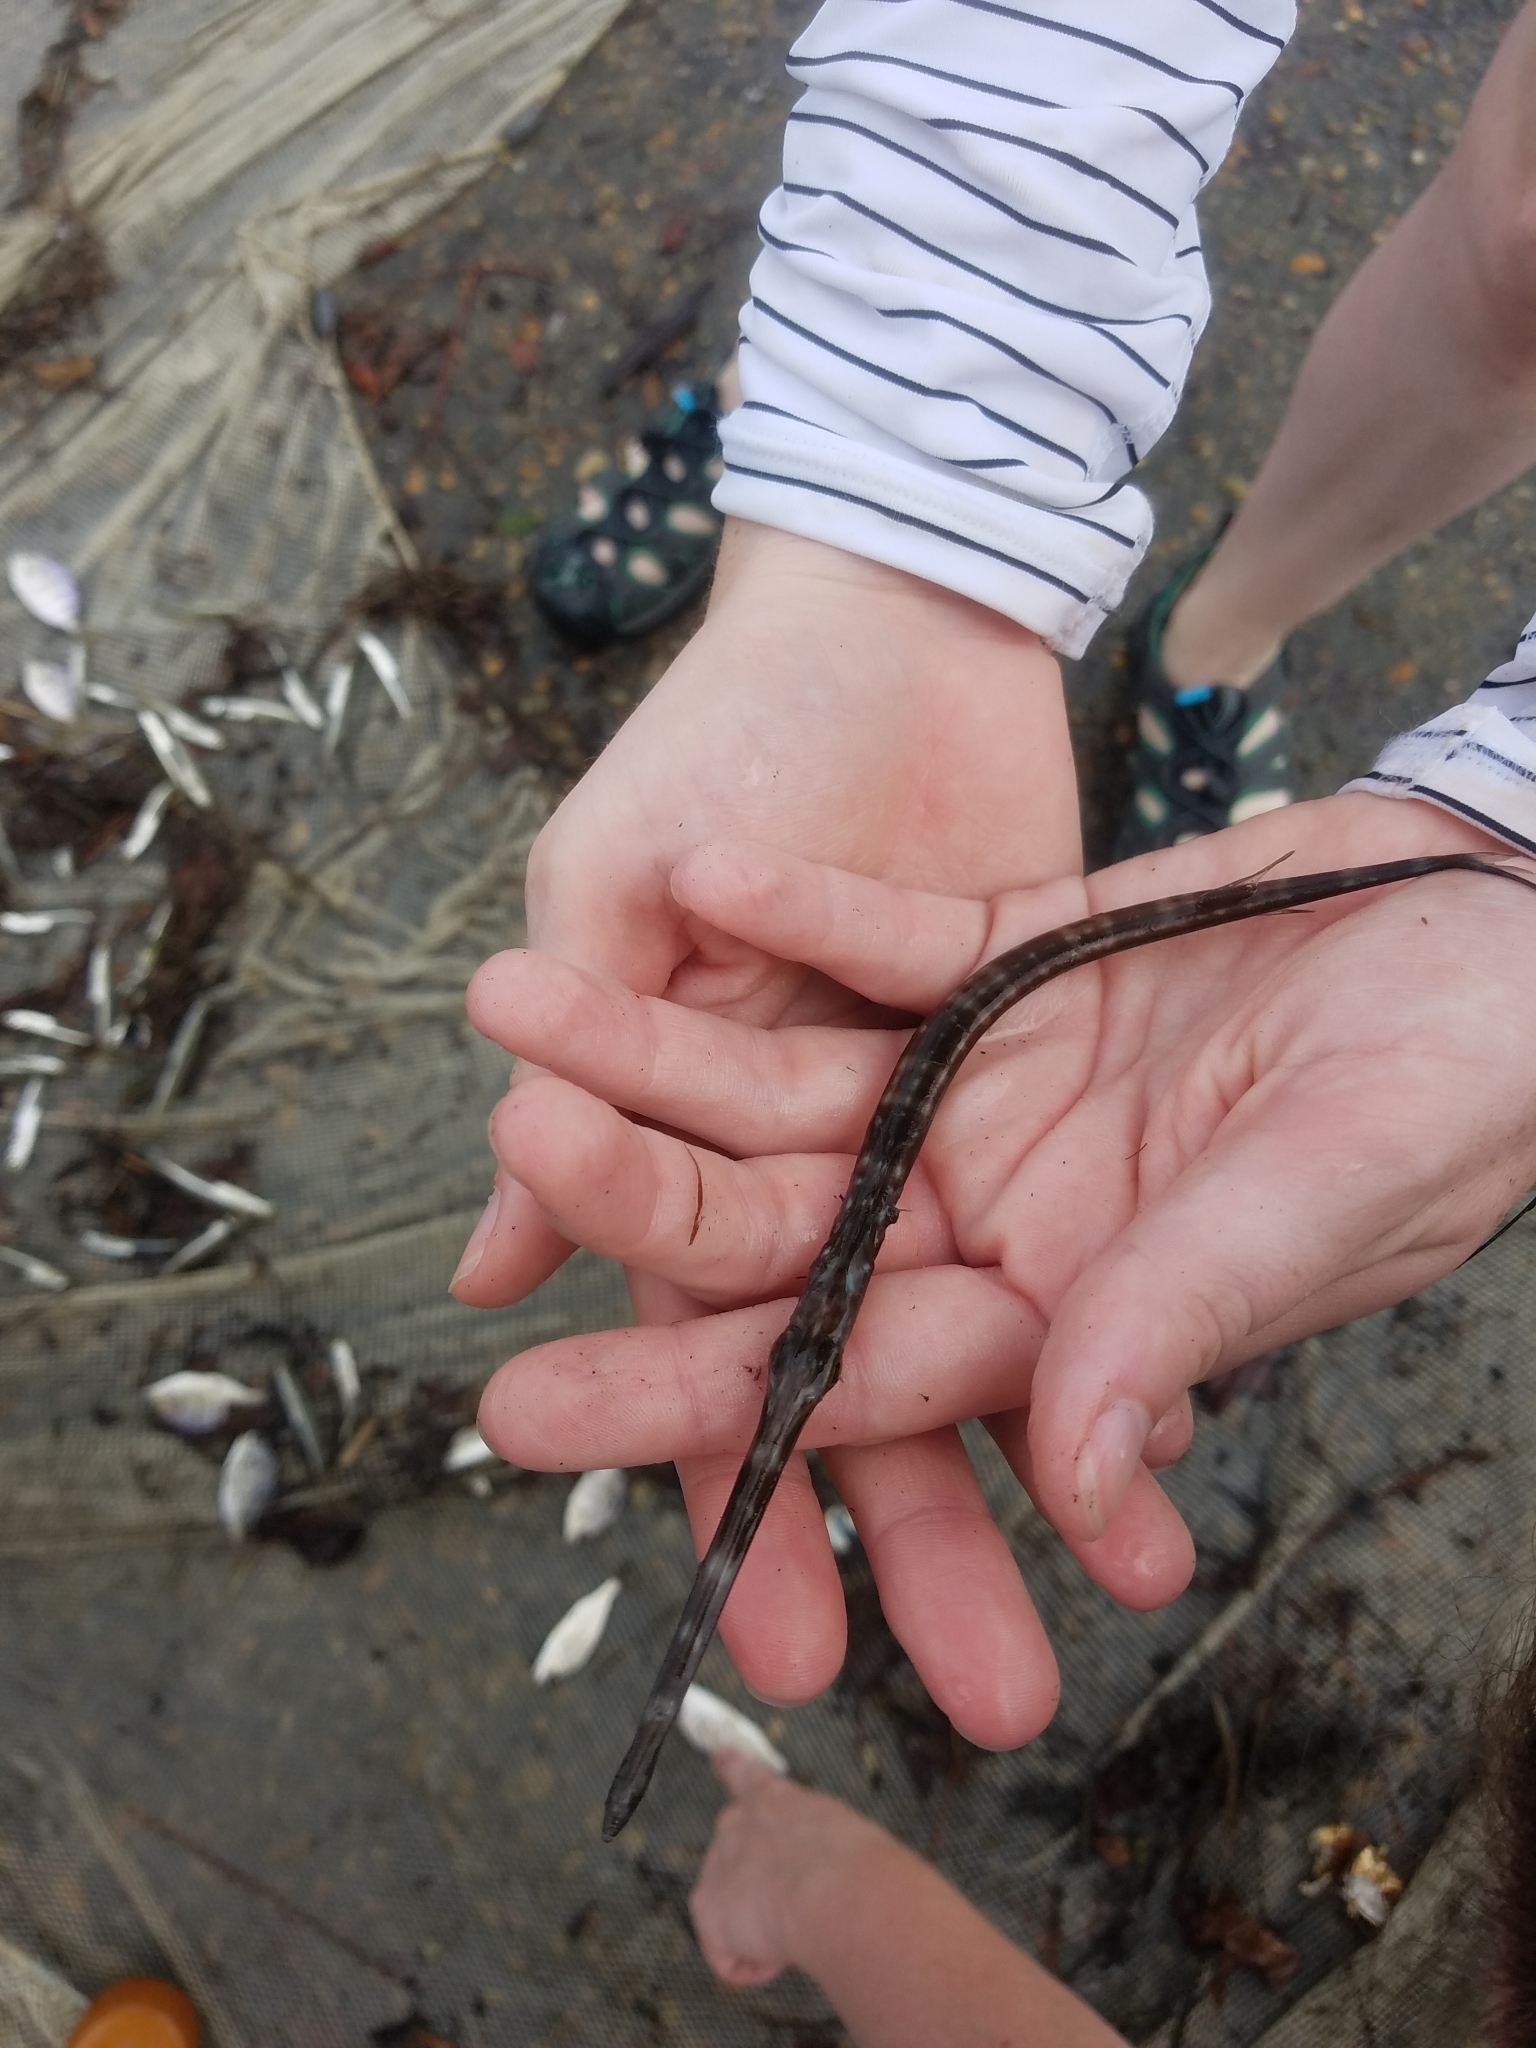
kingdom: Animalia
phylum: Chordata
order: Syngnathiformes
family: Fistulariidae
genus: Fistularia
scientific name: Fistularia tabacaria
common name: Blue-spotted cornetfish
